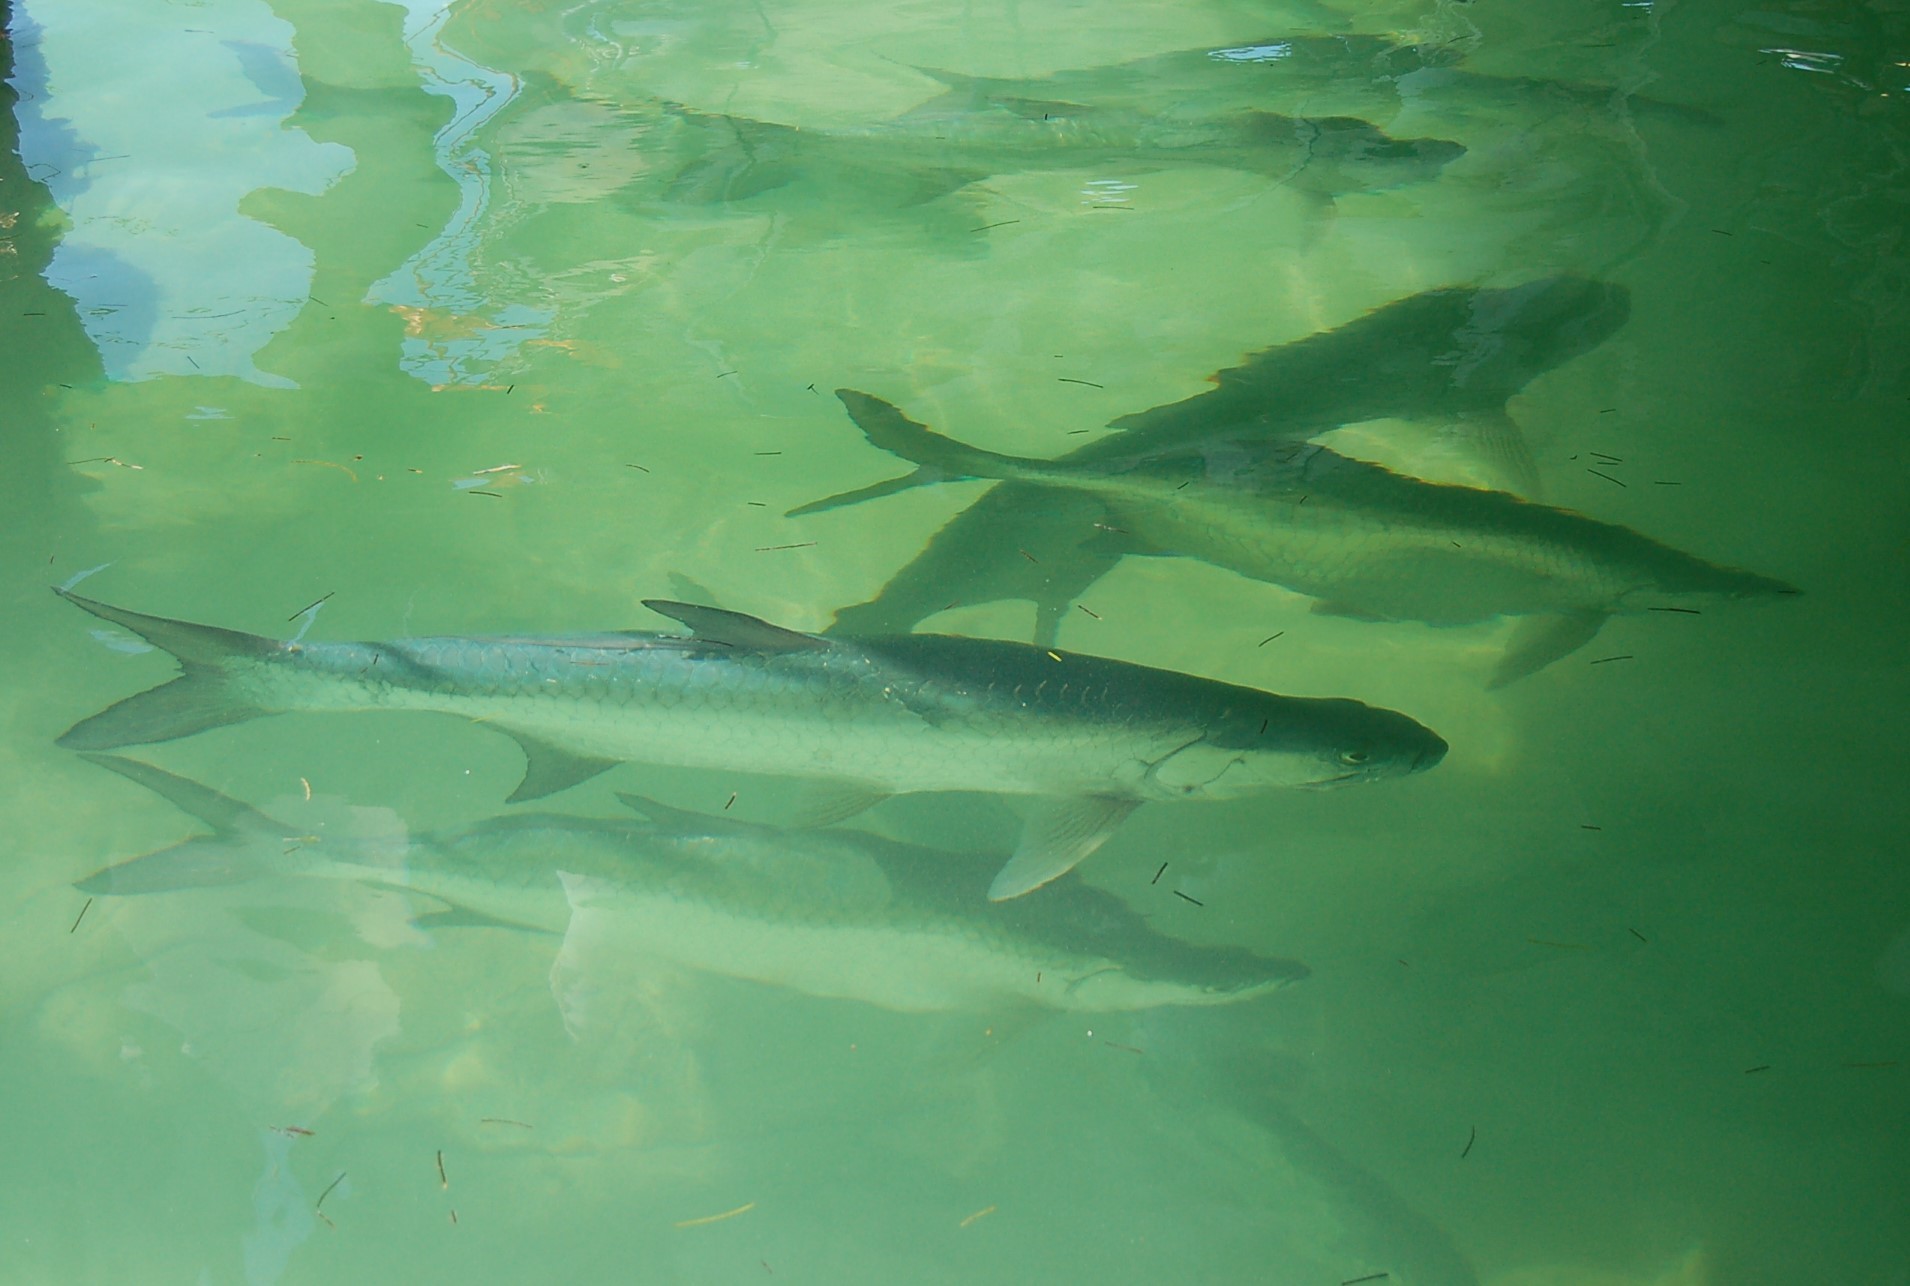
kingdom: Animalia
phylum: Chordata
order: Elopiformes
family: Megalopidae
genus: Megalops
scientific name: Megalops atlanticus
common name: Tarpon
